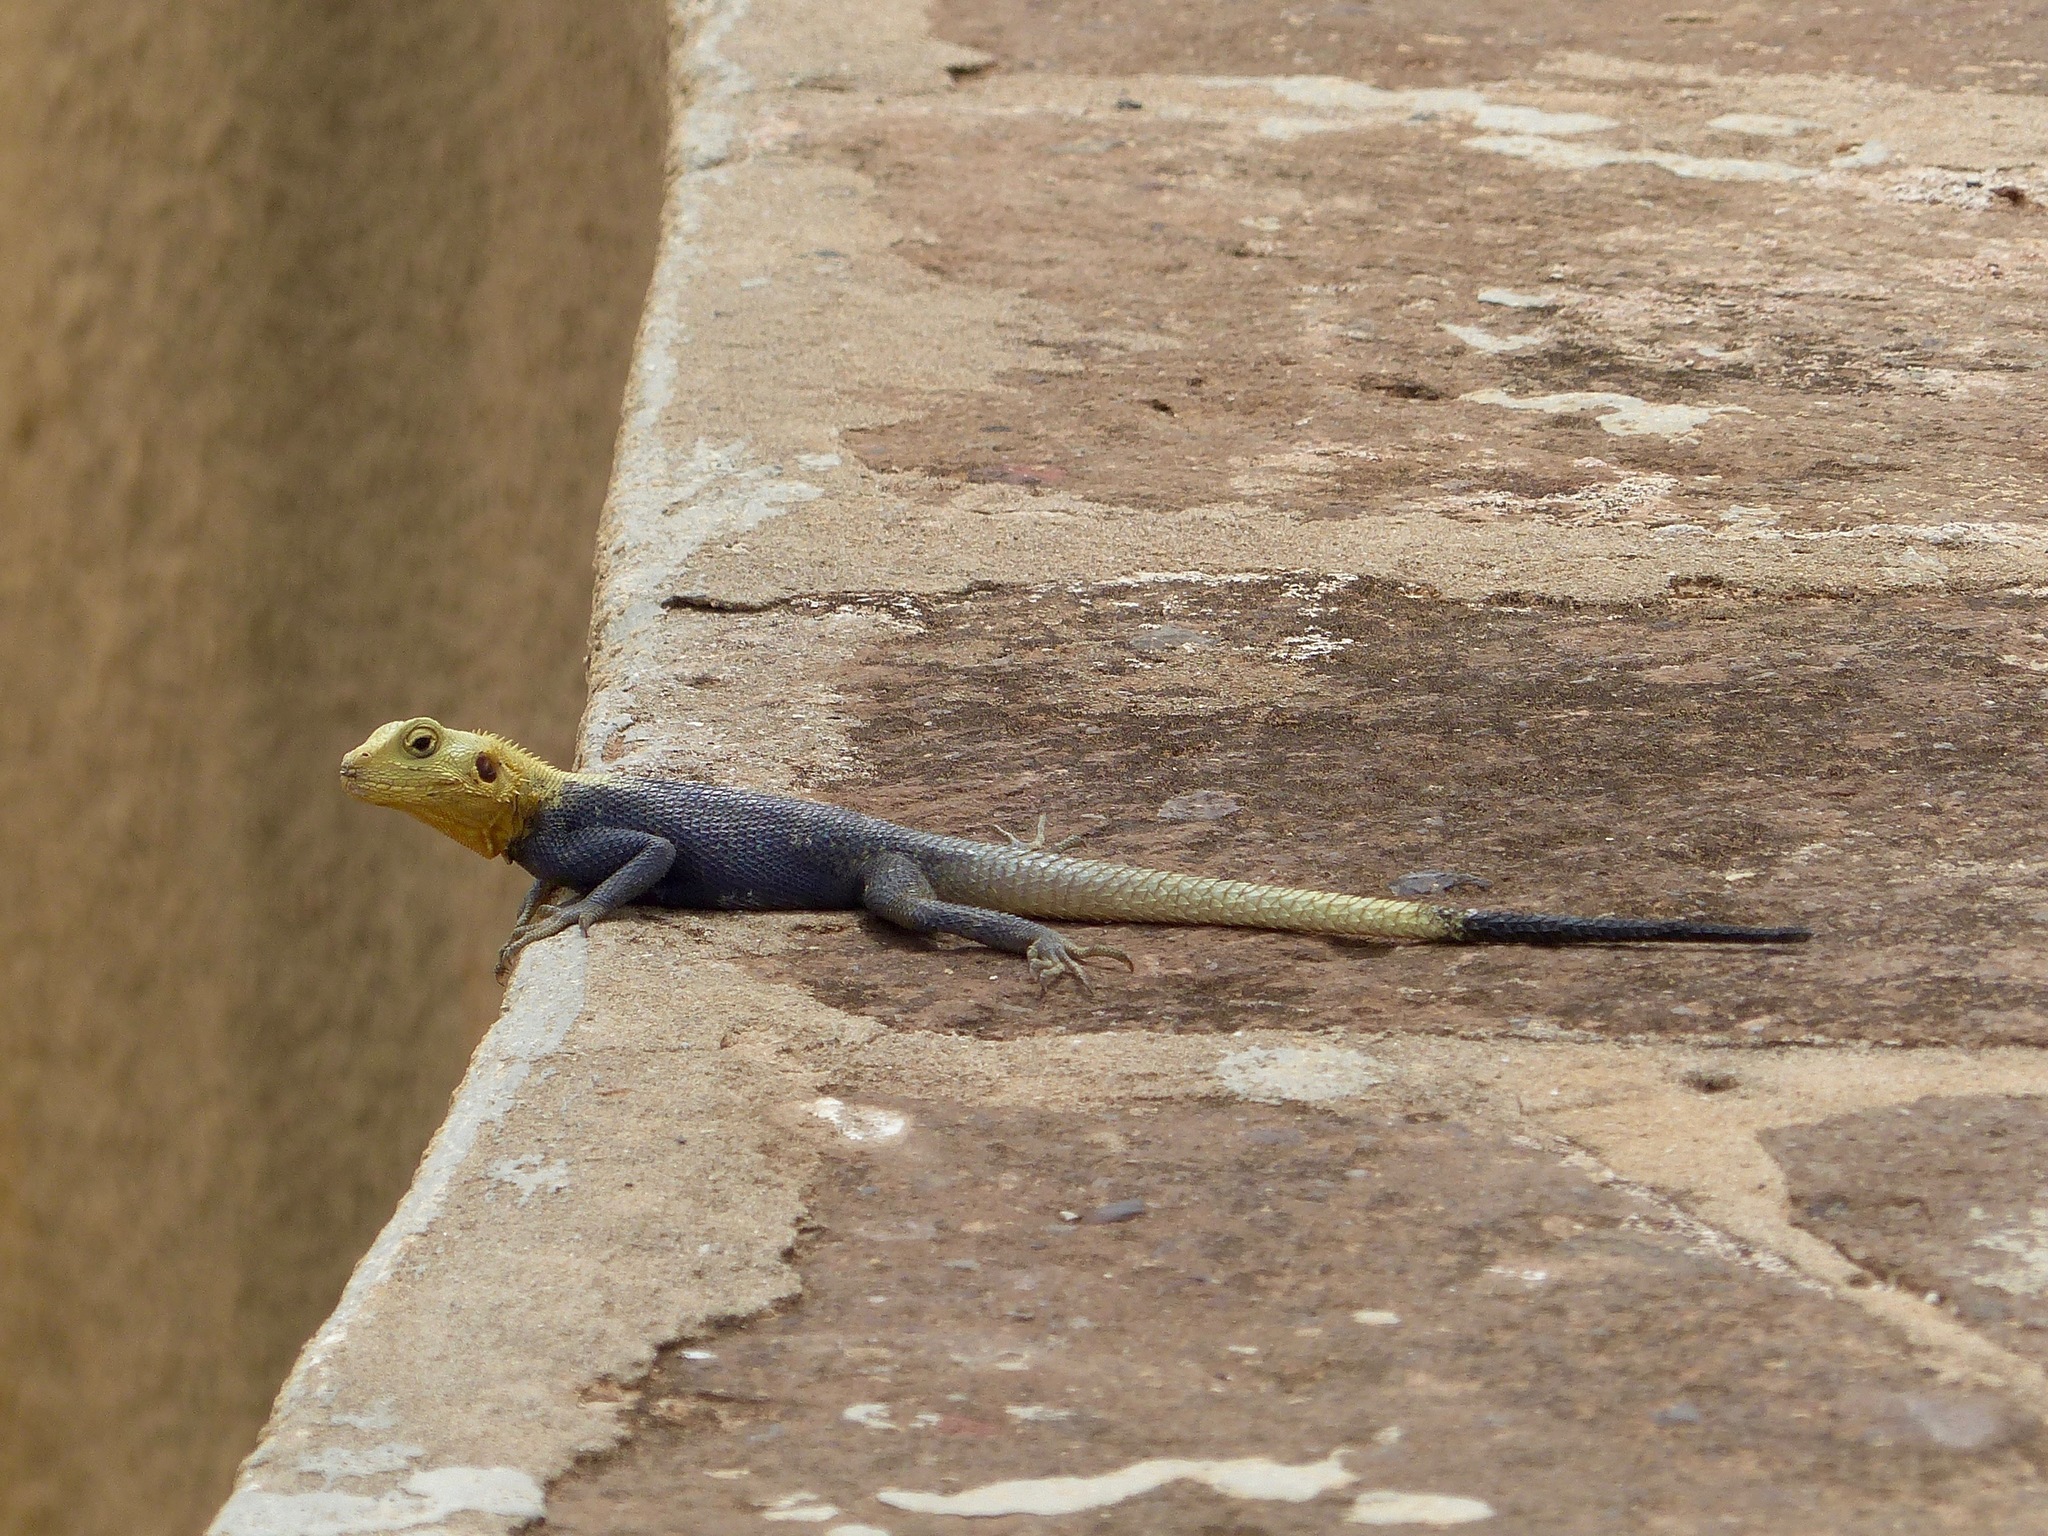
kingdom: Animalia
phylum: Chordata
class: Squamata
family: Agamidae
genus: Agama
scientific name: Agama agama
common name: Common agama
